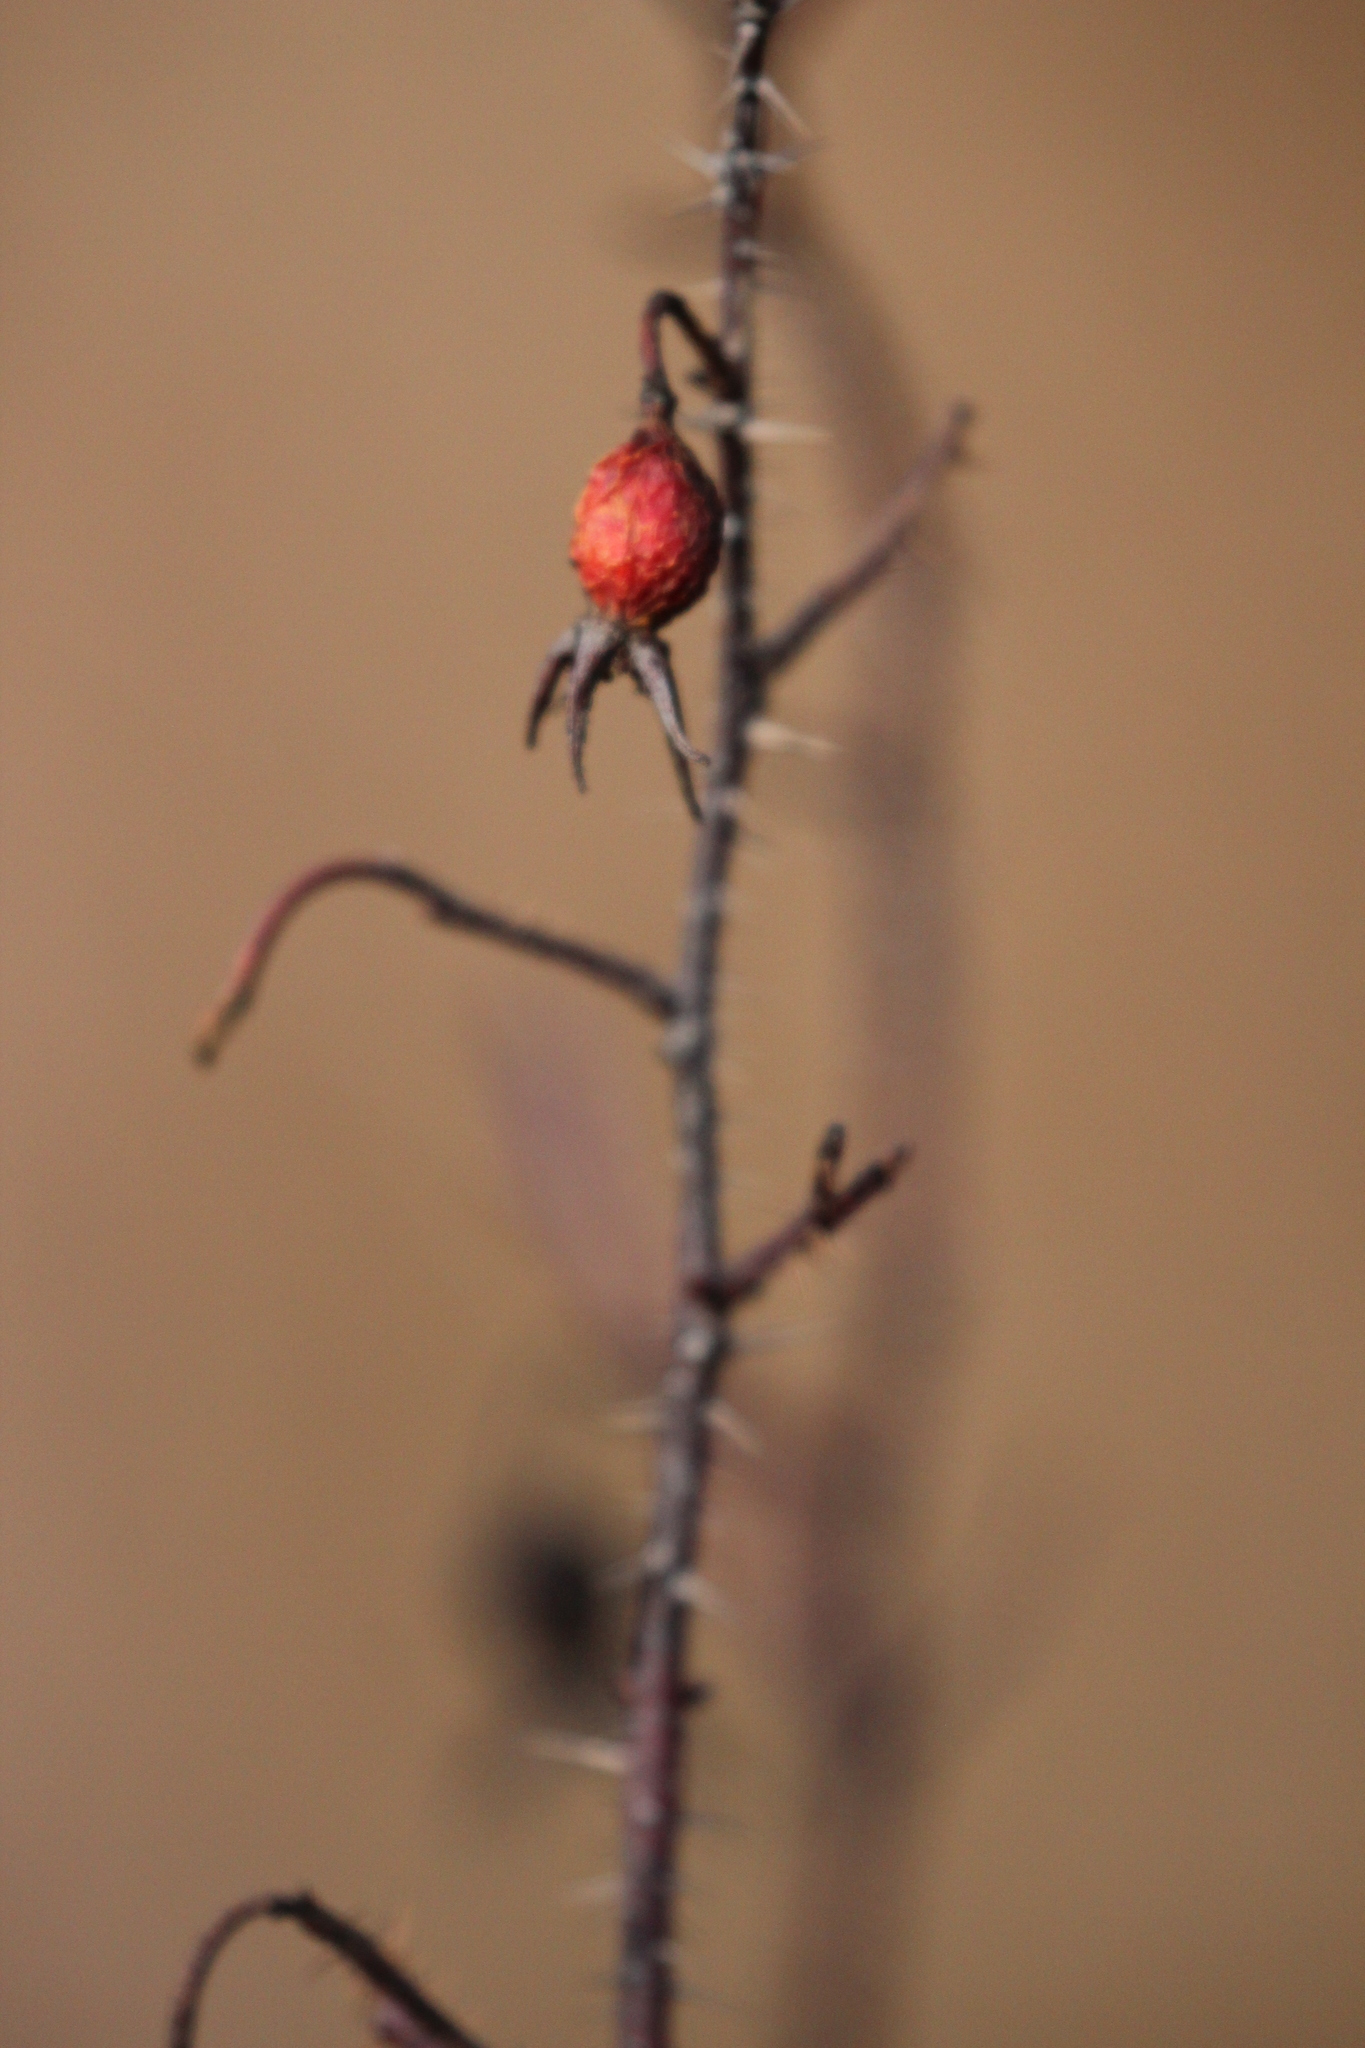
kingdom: Plantae
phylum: Tracheophyta
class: Magnoliopsida
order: Rosales
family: Rosaceae
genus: Rosa
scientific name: Rosa acicularis
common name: Prickly rose
